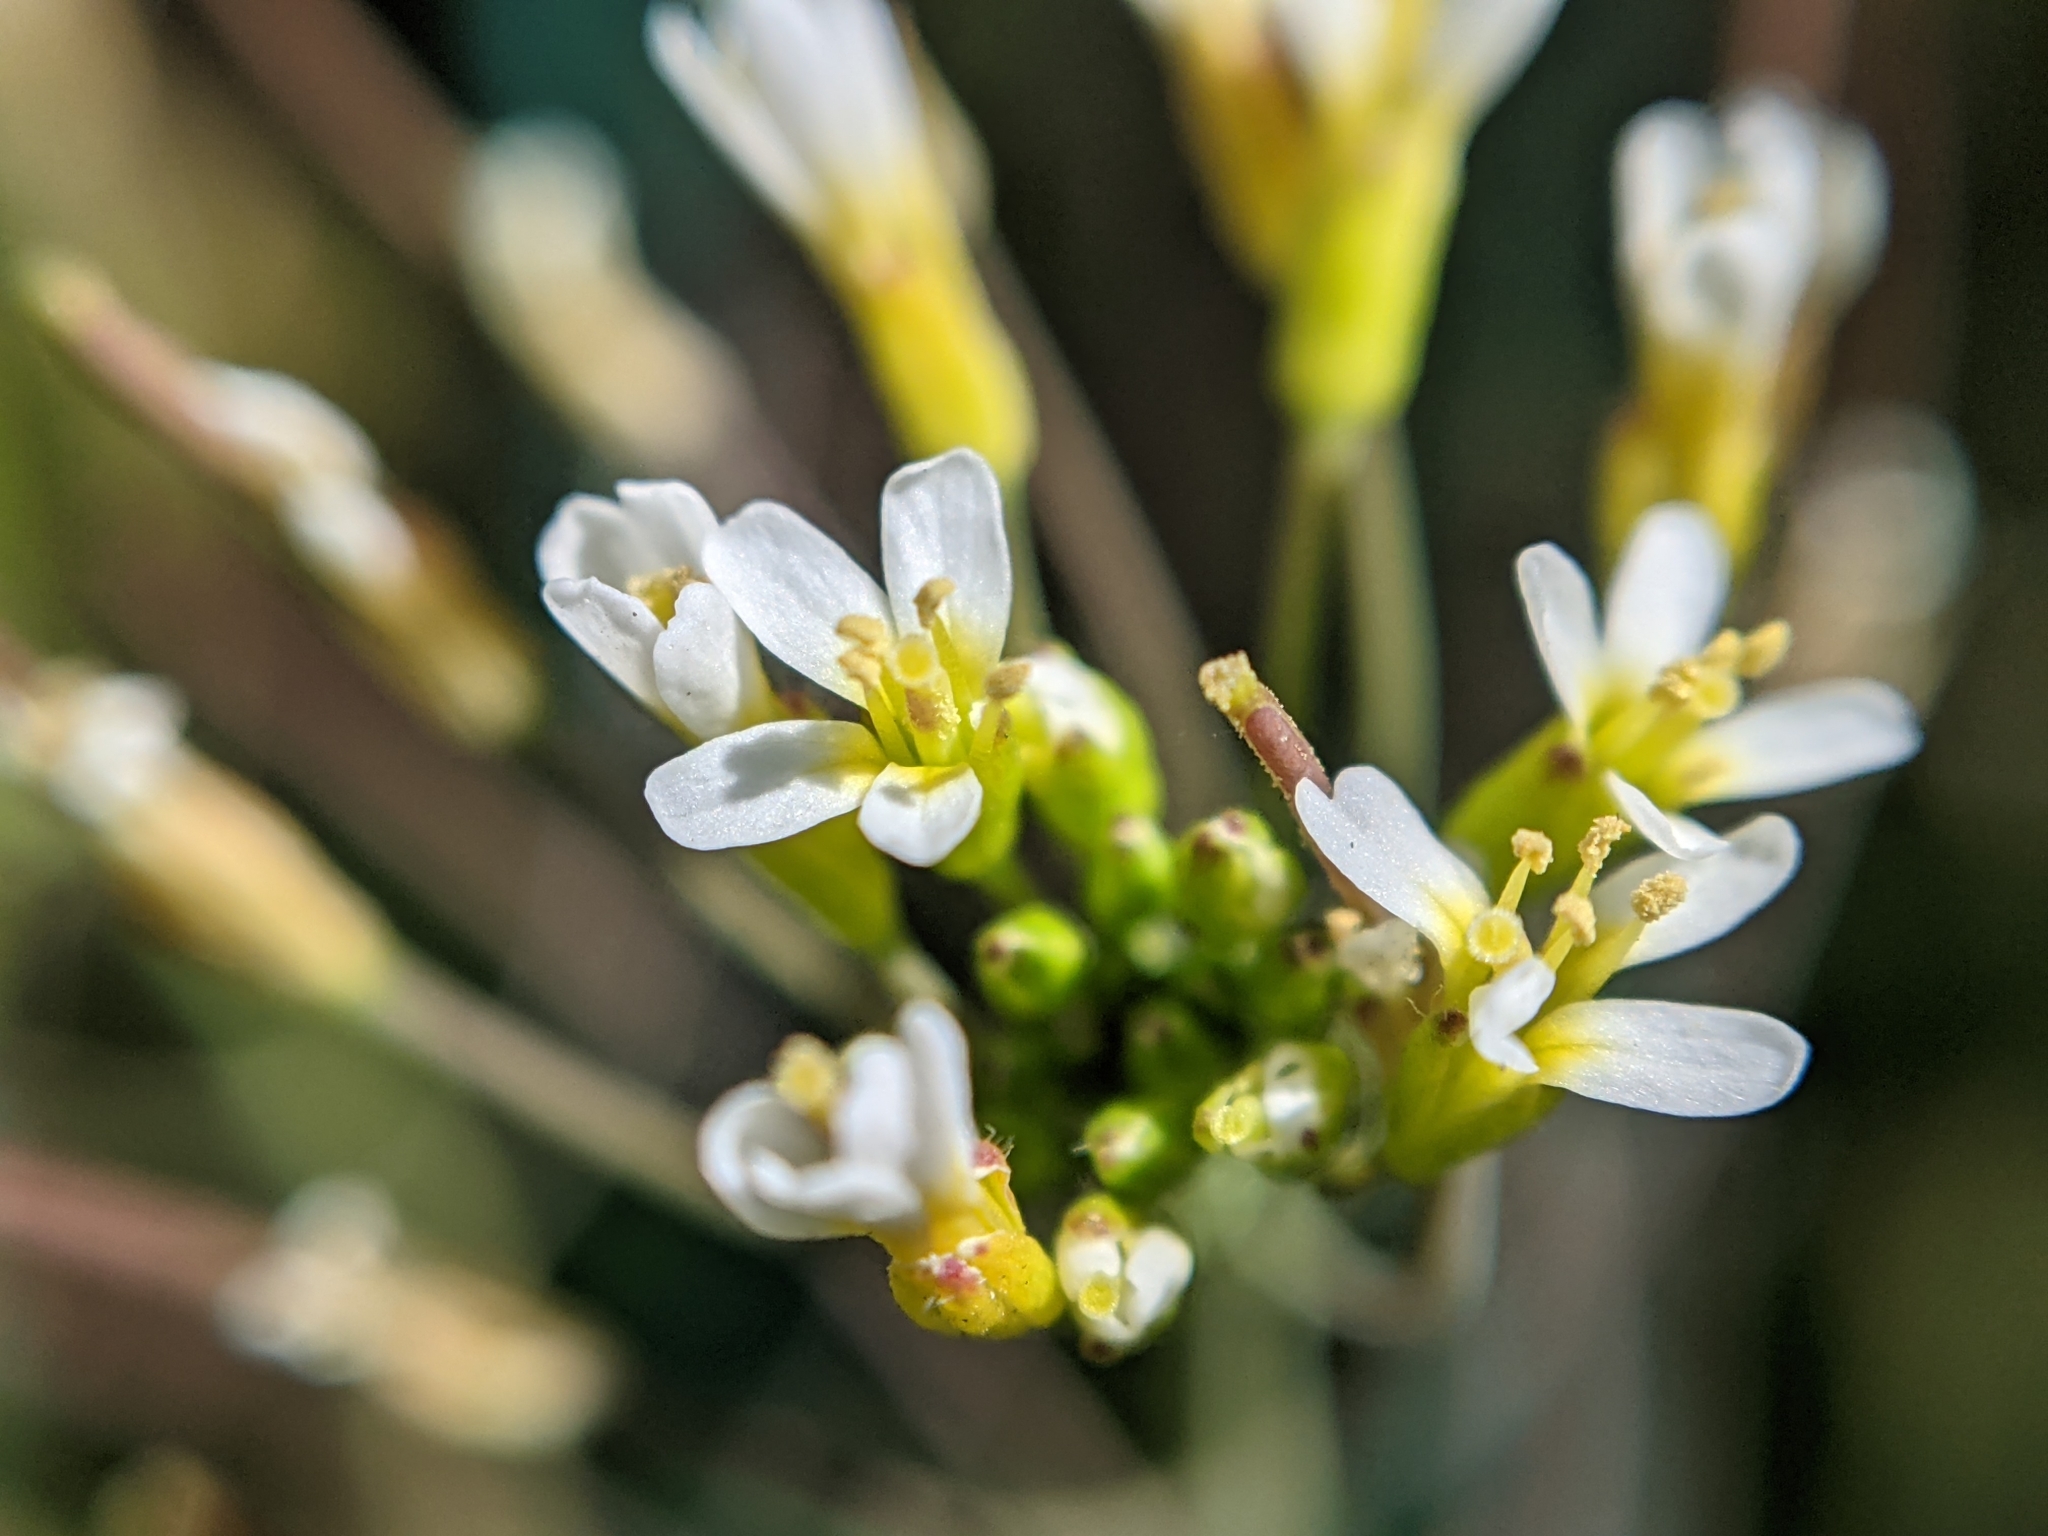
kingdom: Plantae
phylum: Tracheophyta
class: Magnoliopsida
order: Brassicales
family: Brassicaceae
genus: Arabidopsis
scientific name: Arabidopsis thaliana
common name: Thale cress
